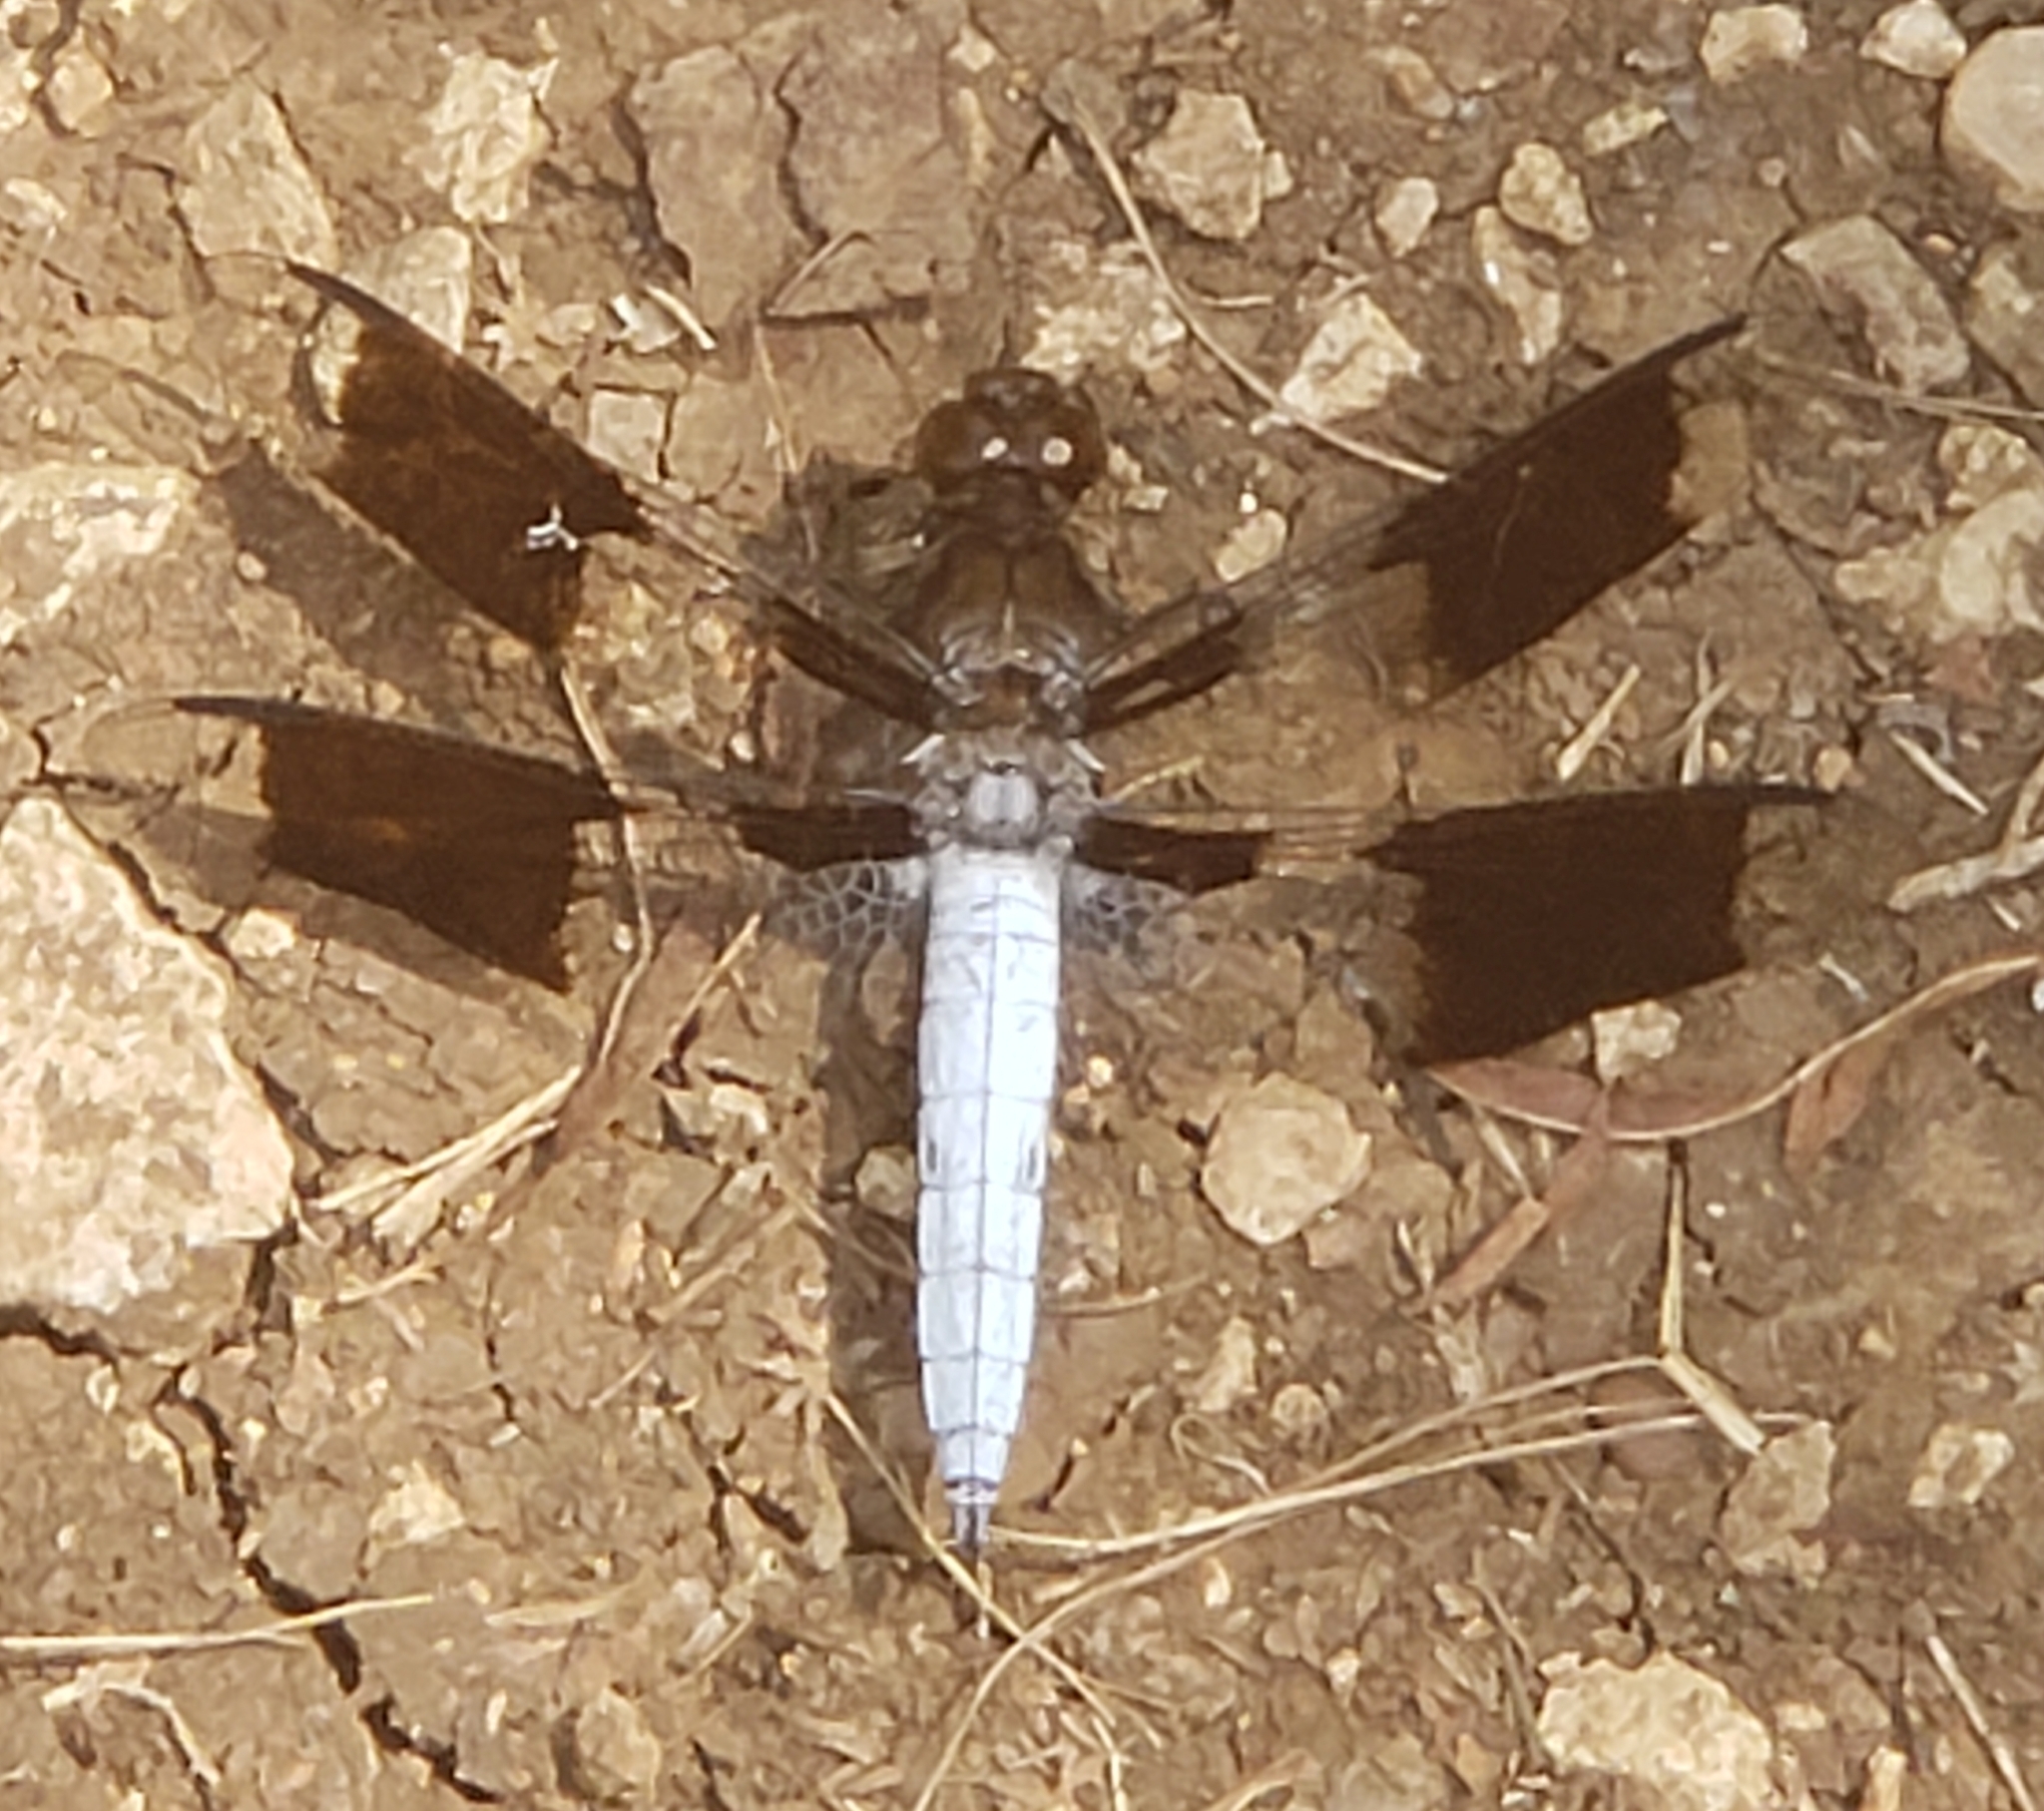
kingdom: Animalia
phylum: Arthropoda
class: Insecta
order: Odonata
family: Libellulidae
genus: Plathemis
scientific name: Plathemis lydia
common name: Common whitetail
